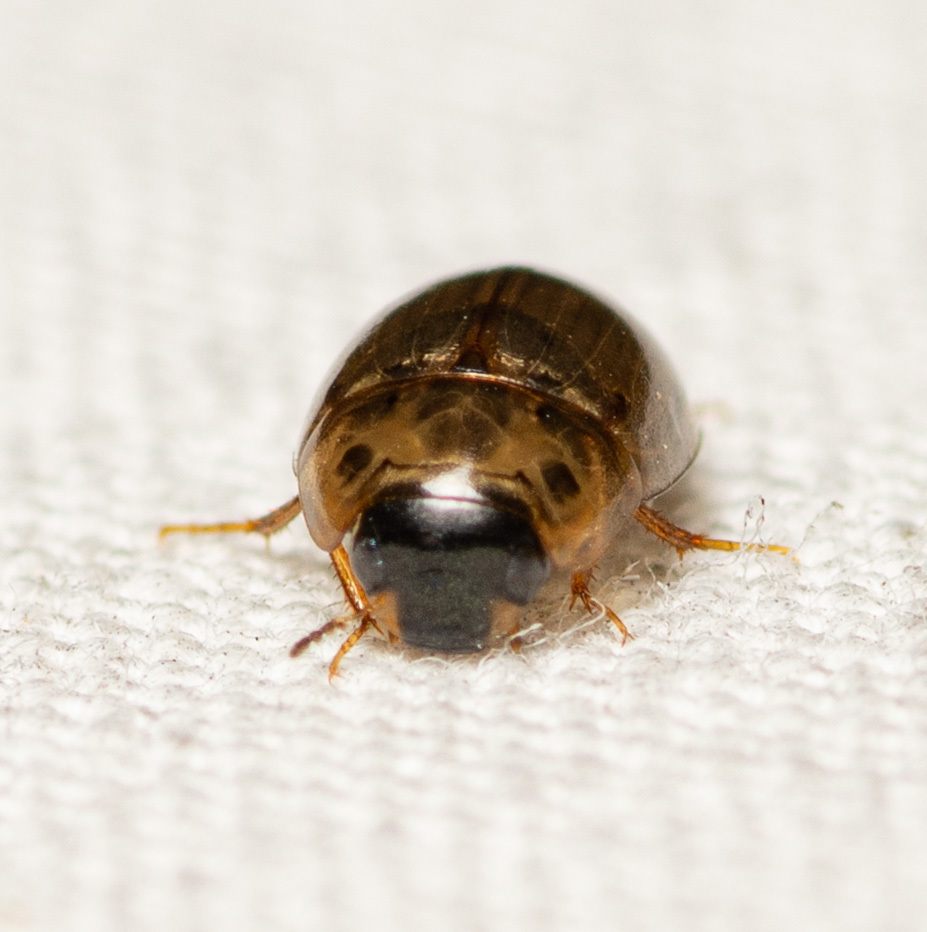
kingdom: Animalia
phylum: Arthropoda
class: Insecta
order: Coleoptera
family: Hydrophilidae
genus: Enochrus
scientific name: Enochrus
